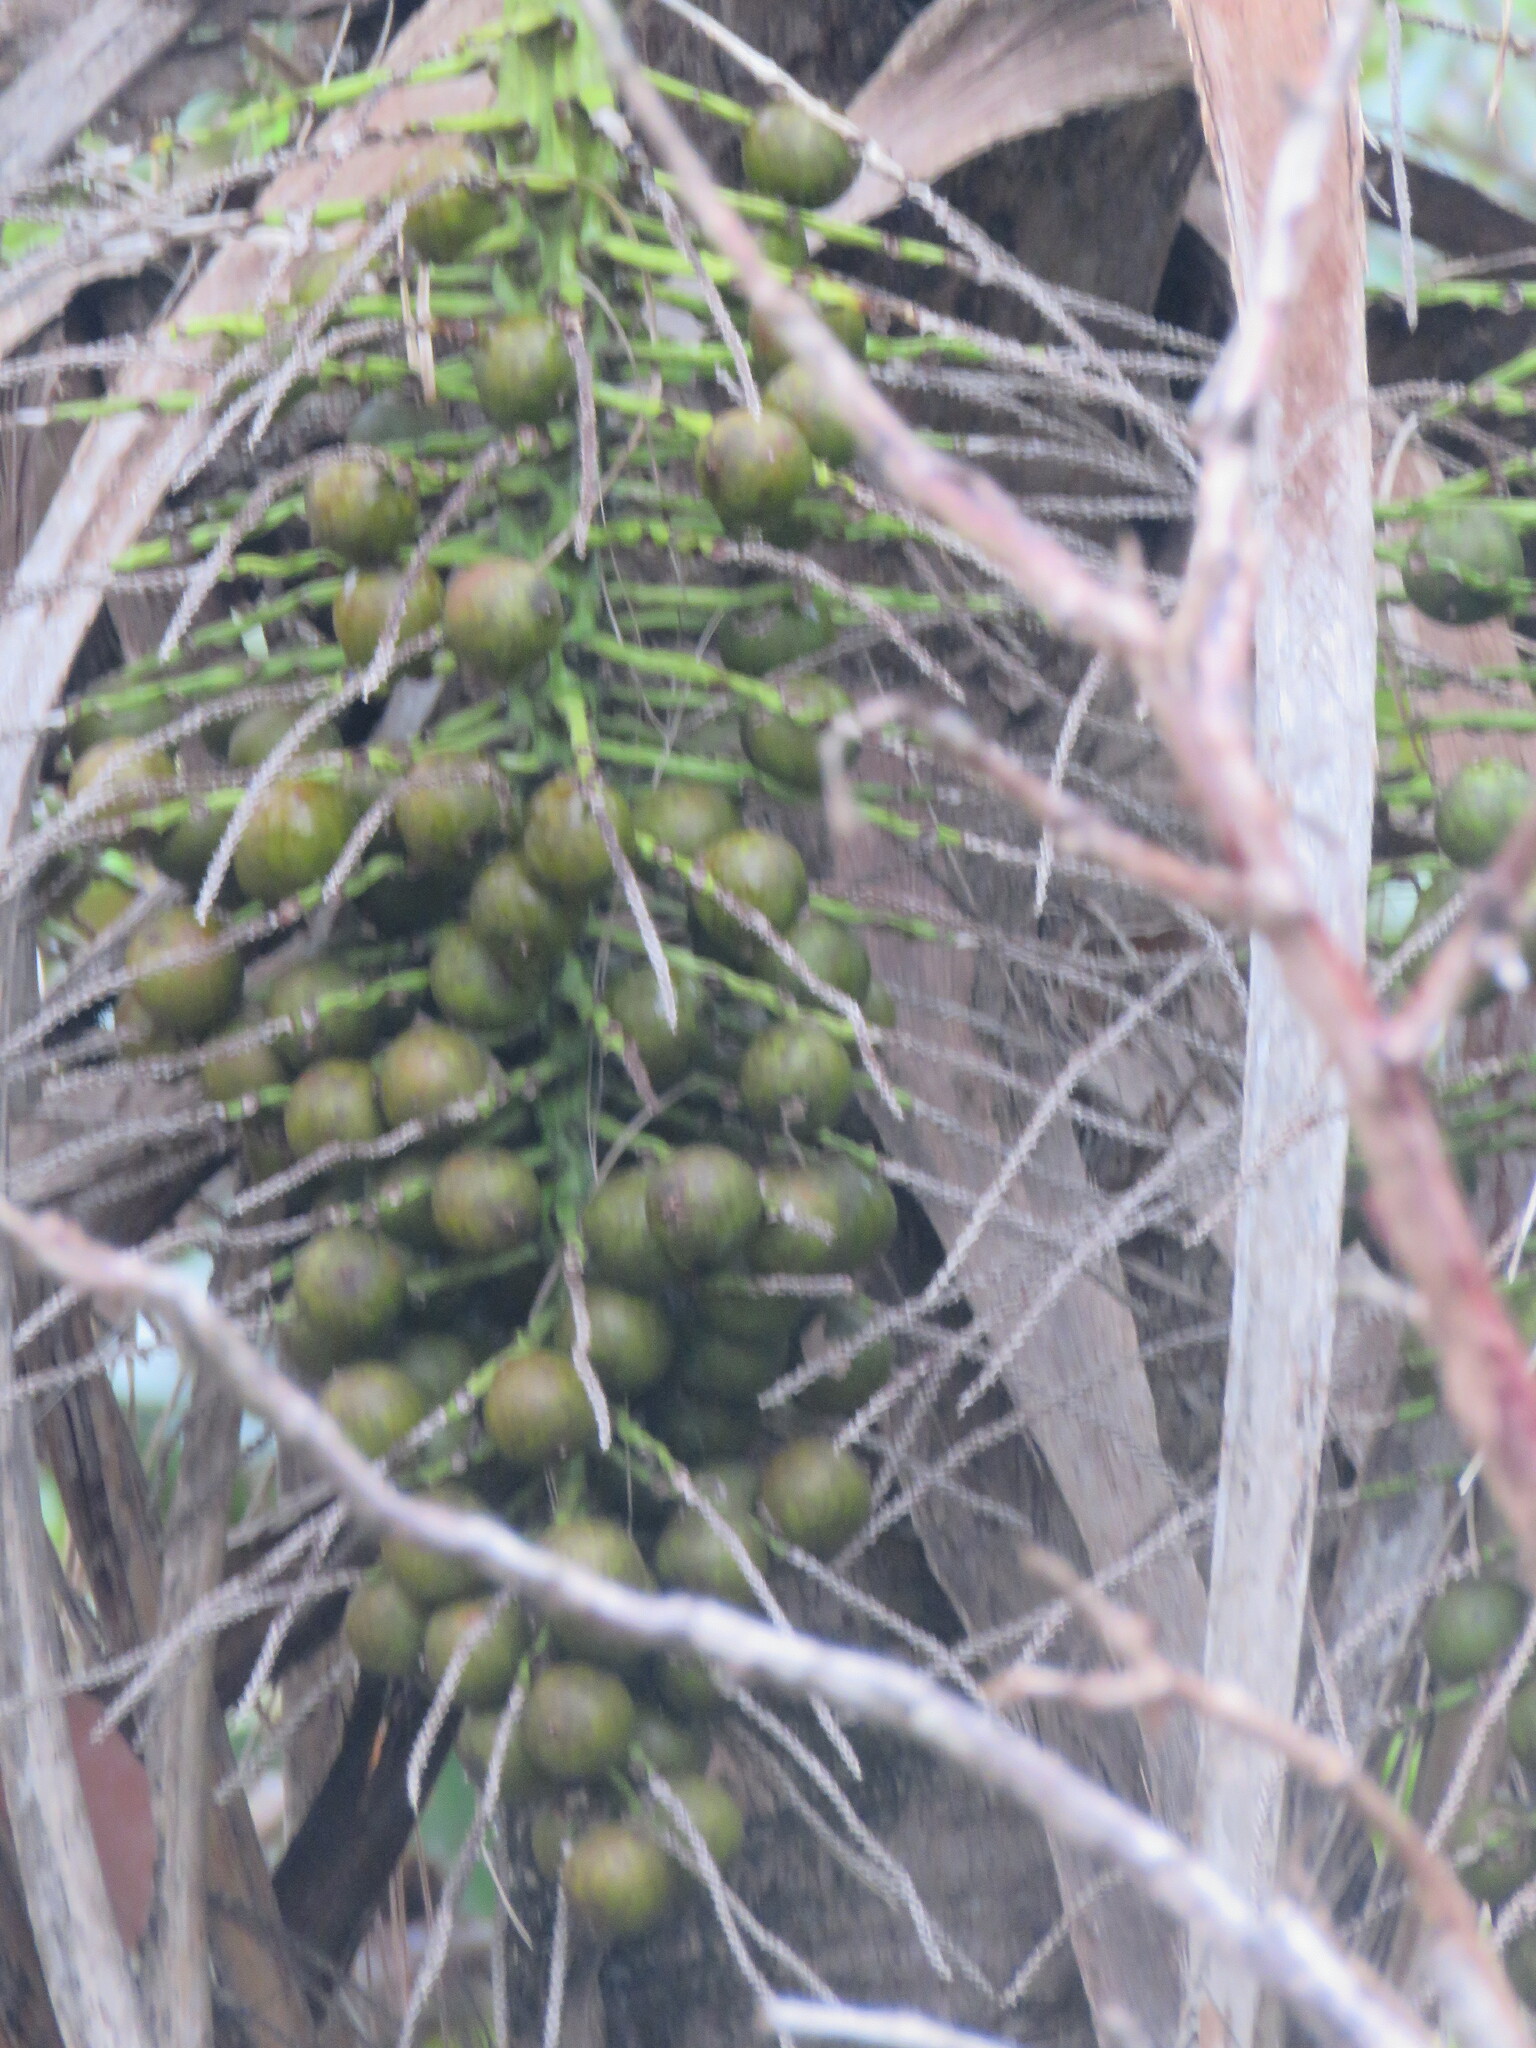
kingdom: Plantae
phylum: Tracheophyta
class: Liliopsida
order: Arecales
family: Arecaceae
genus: Acrocomia
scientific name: Acrocomia aculeata
